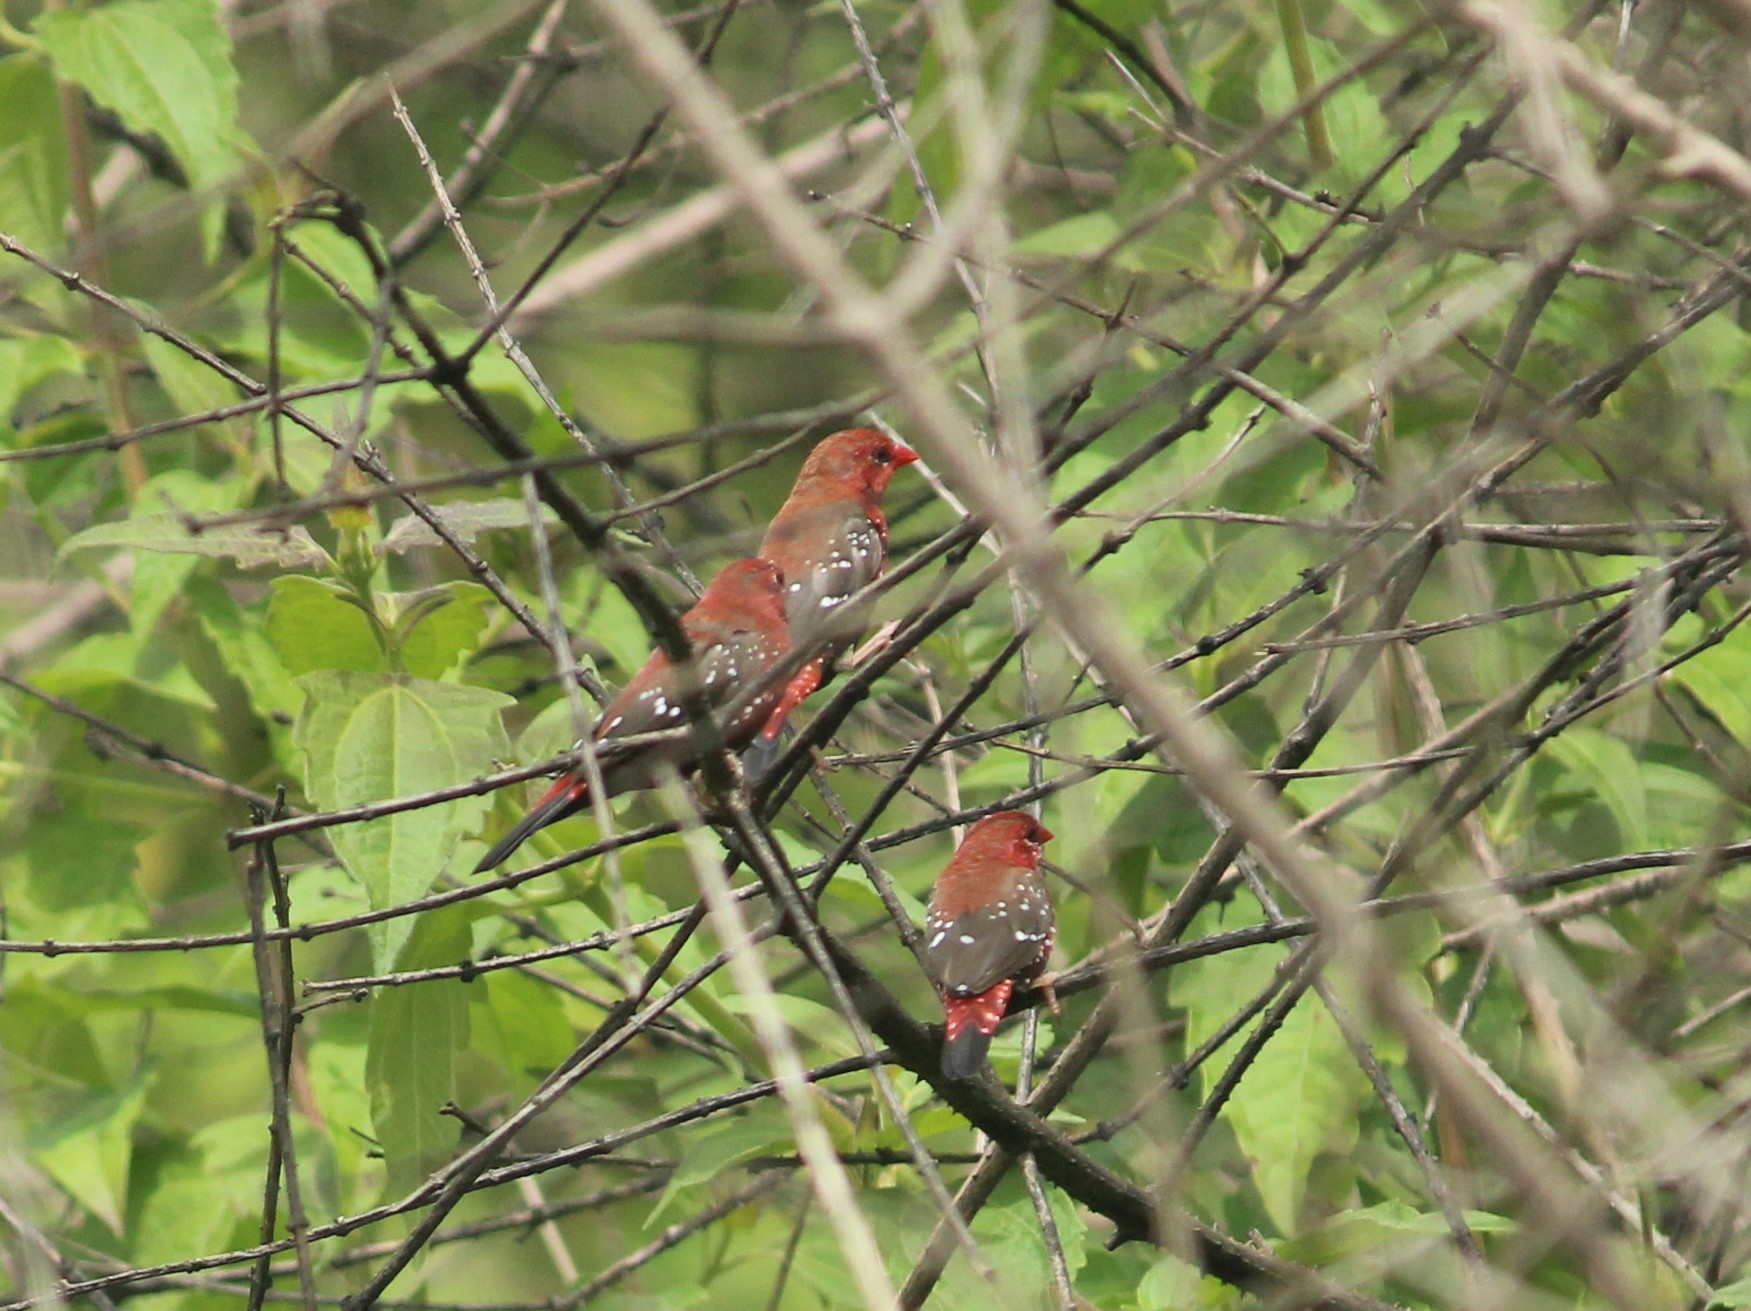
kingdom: Animalia
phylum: Chordata
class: Aves
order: Passeriformes
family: Estrildidae
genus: Amandava
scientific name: Amandava amandava
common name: Red avadavat
